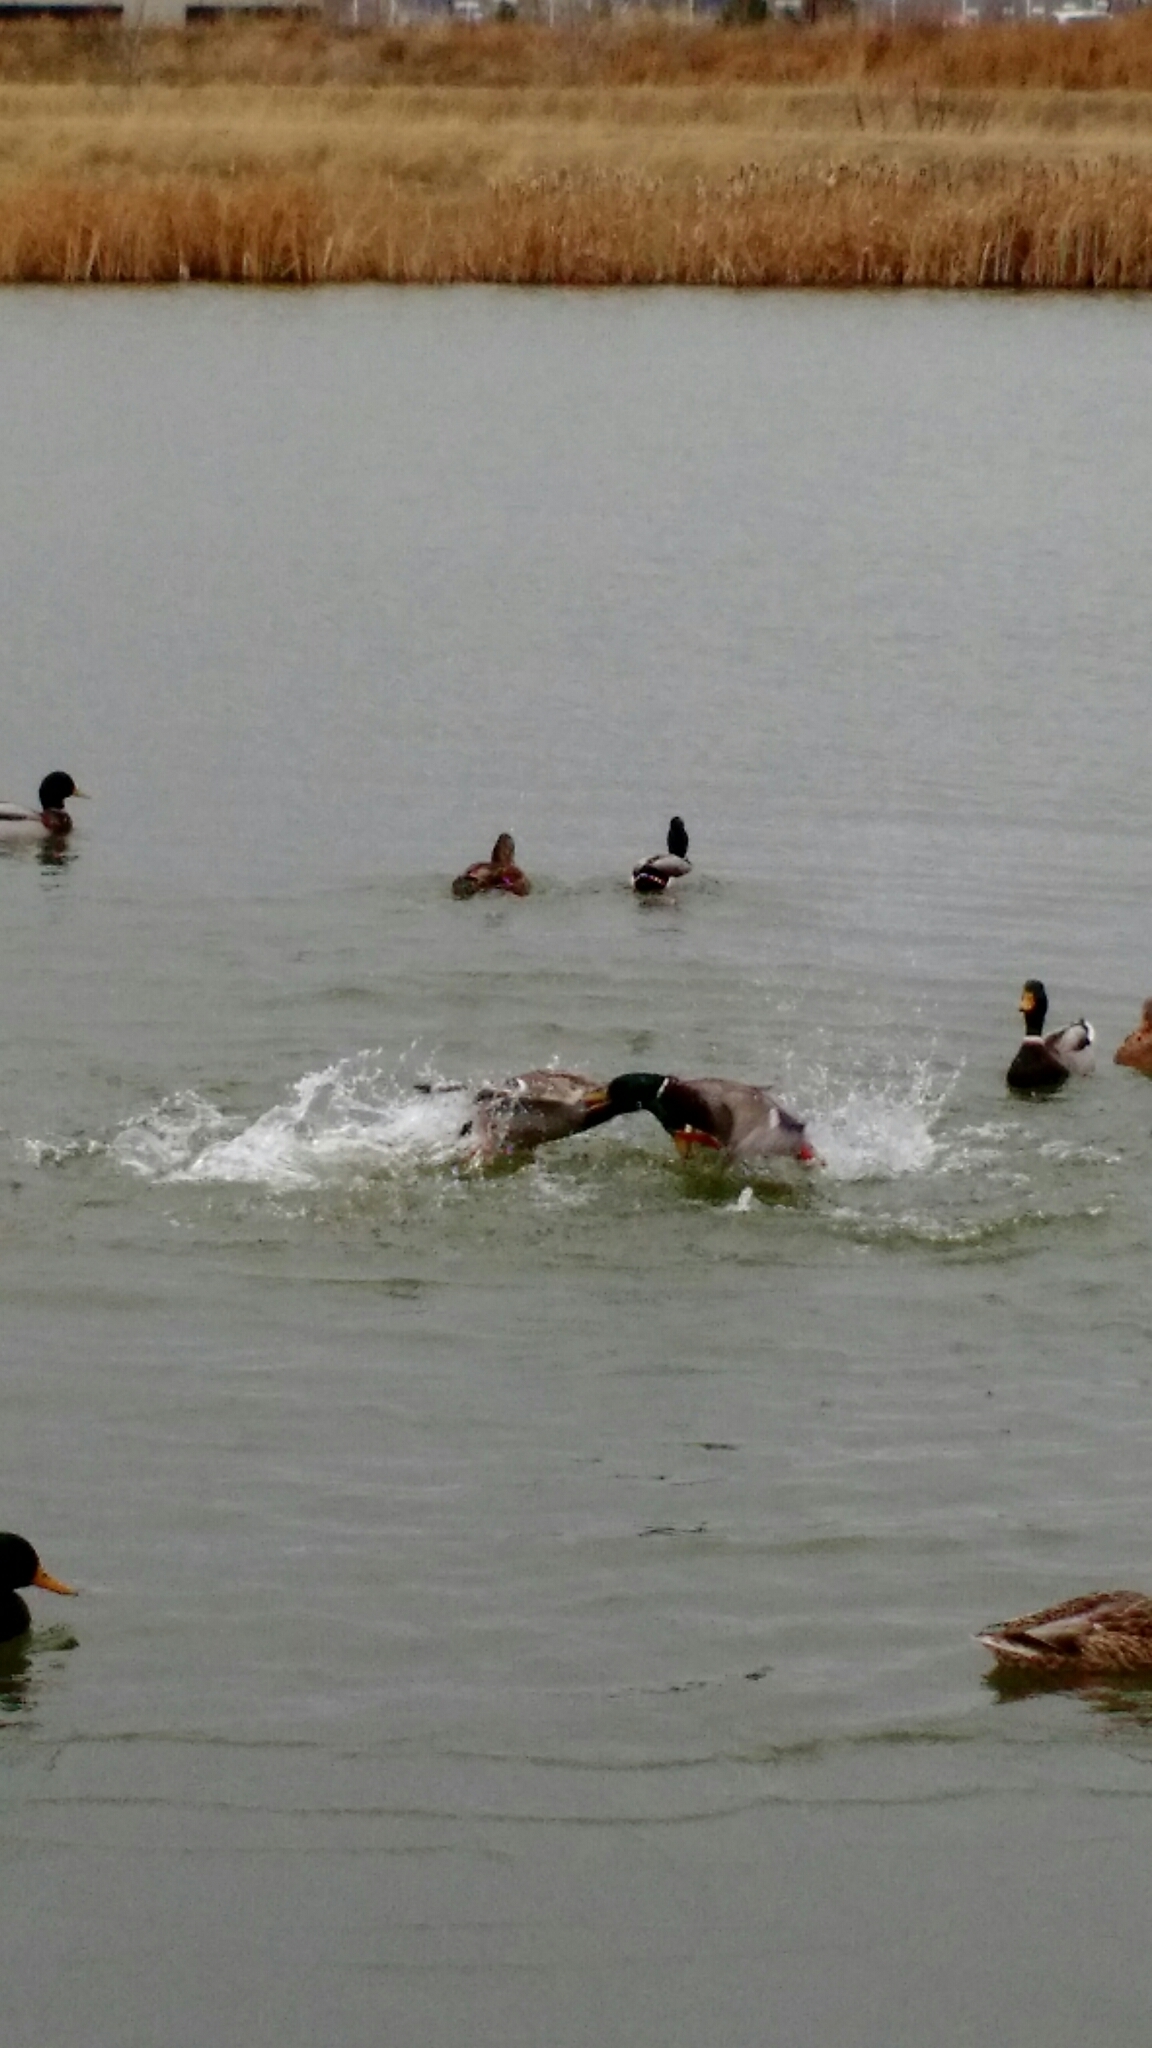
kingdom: Animalia
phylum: Chordata
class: Aves
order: Anseriformes
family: Anatidae
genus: Anas
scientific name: Anas platyrhynchos
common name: Mallard
